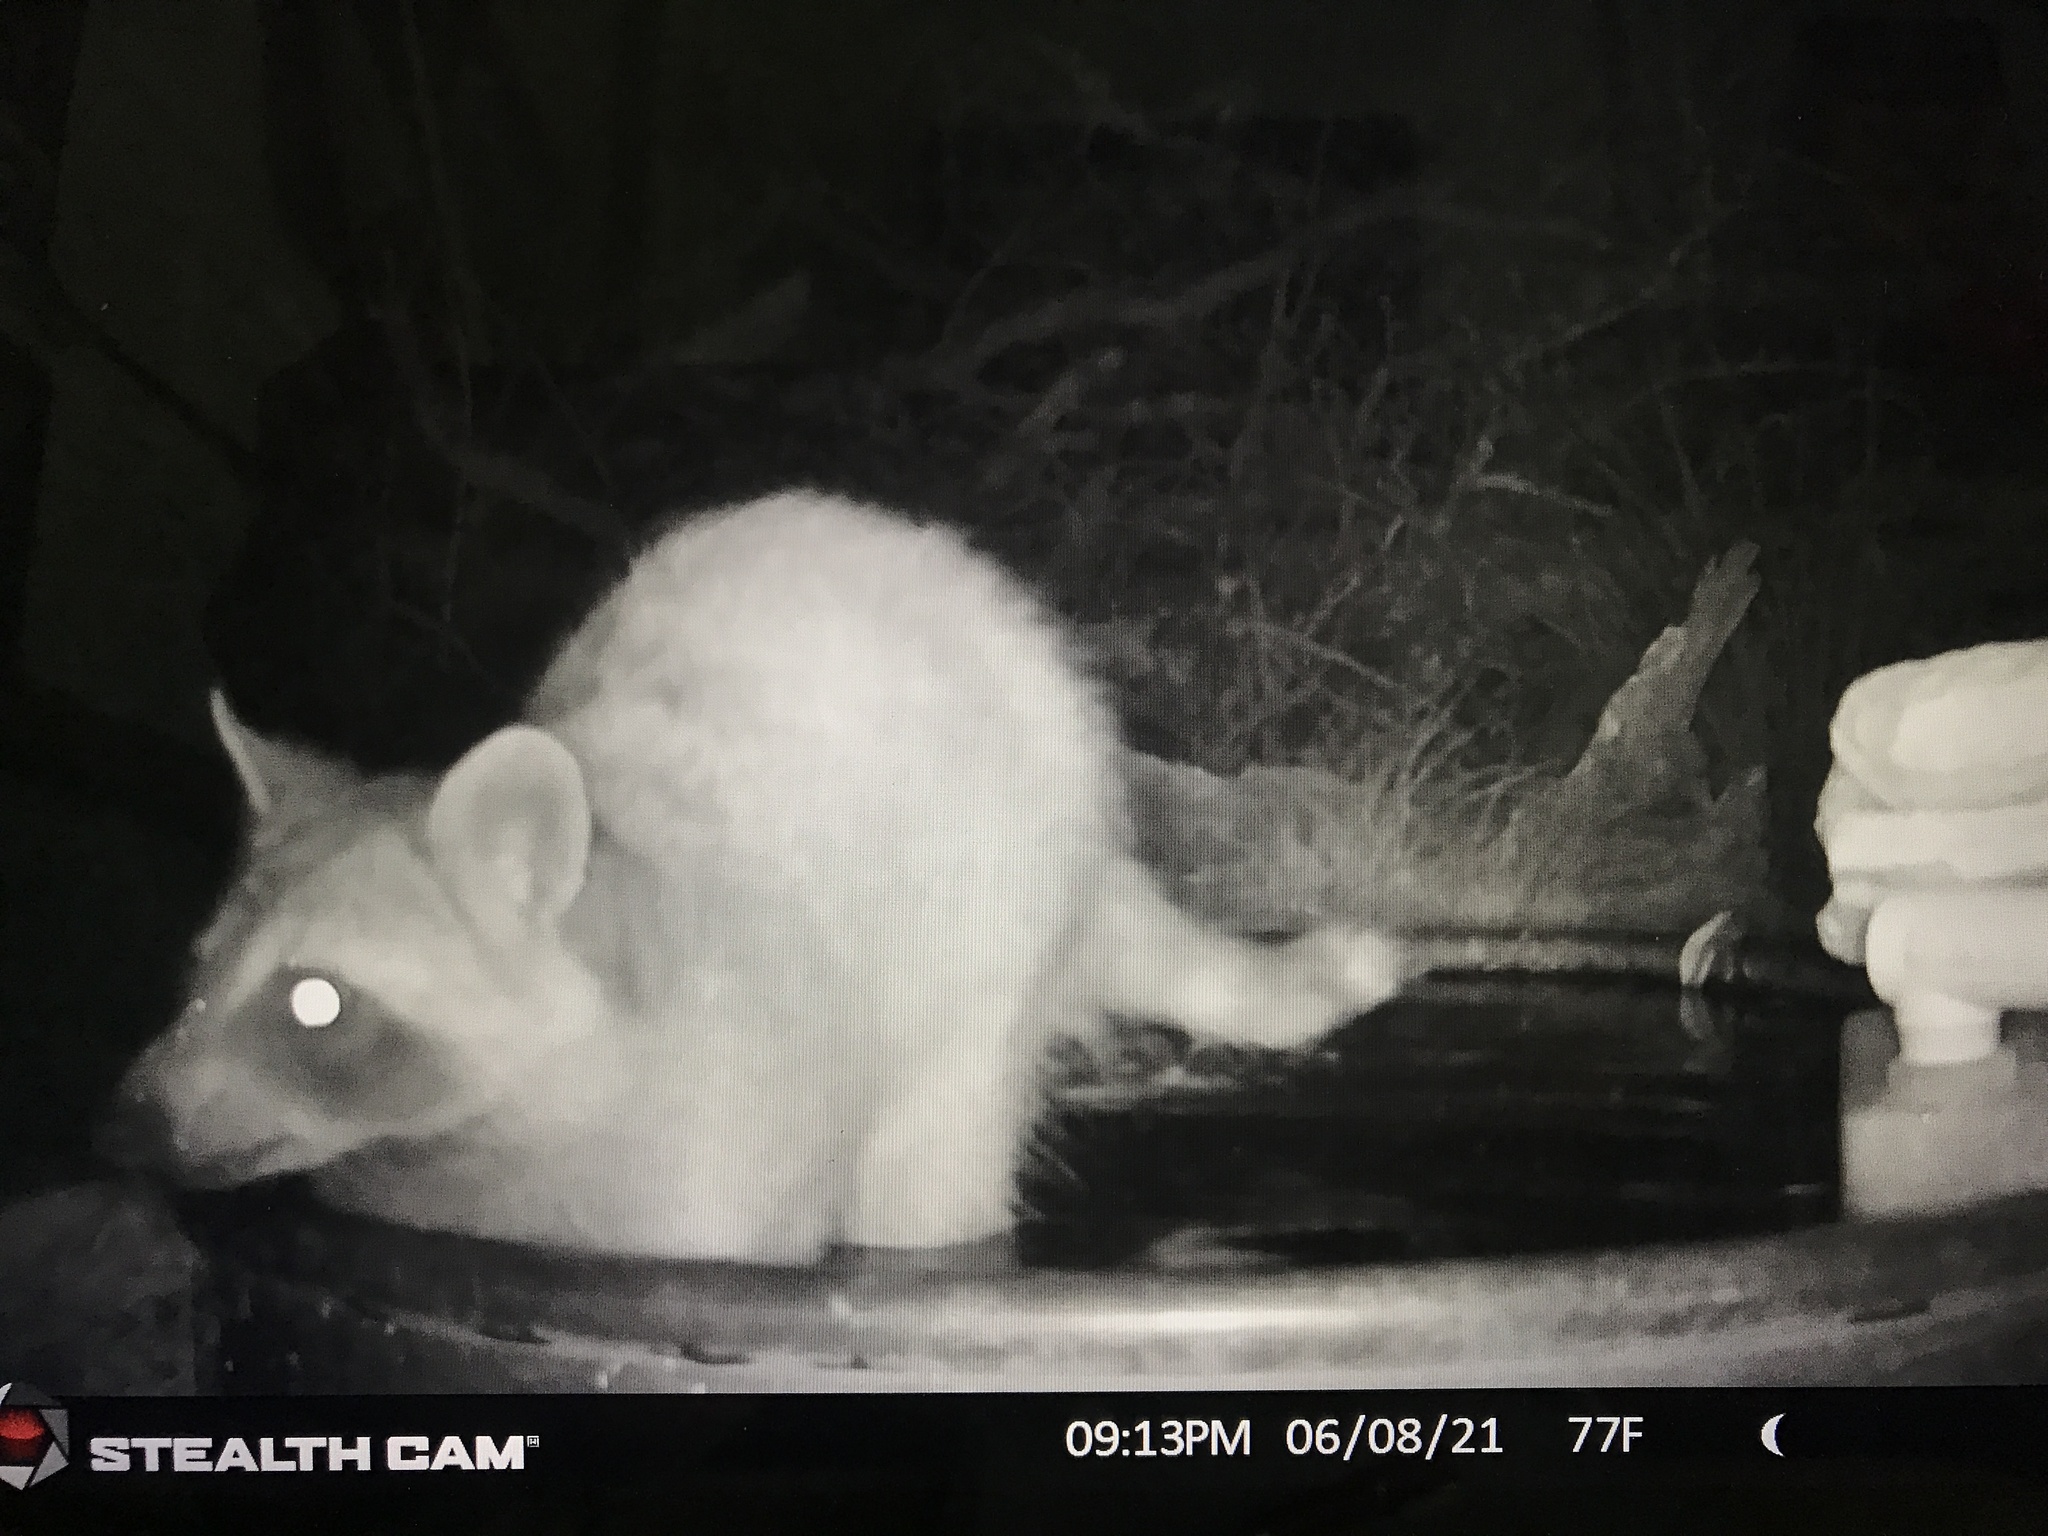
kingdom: Animalia
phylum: Chordata
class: Mammalia
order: Carnivora
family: Procyonidae
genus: Procyon
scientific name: Procyon lotor
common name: Raccoon
